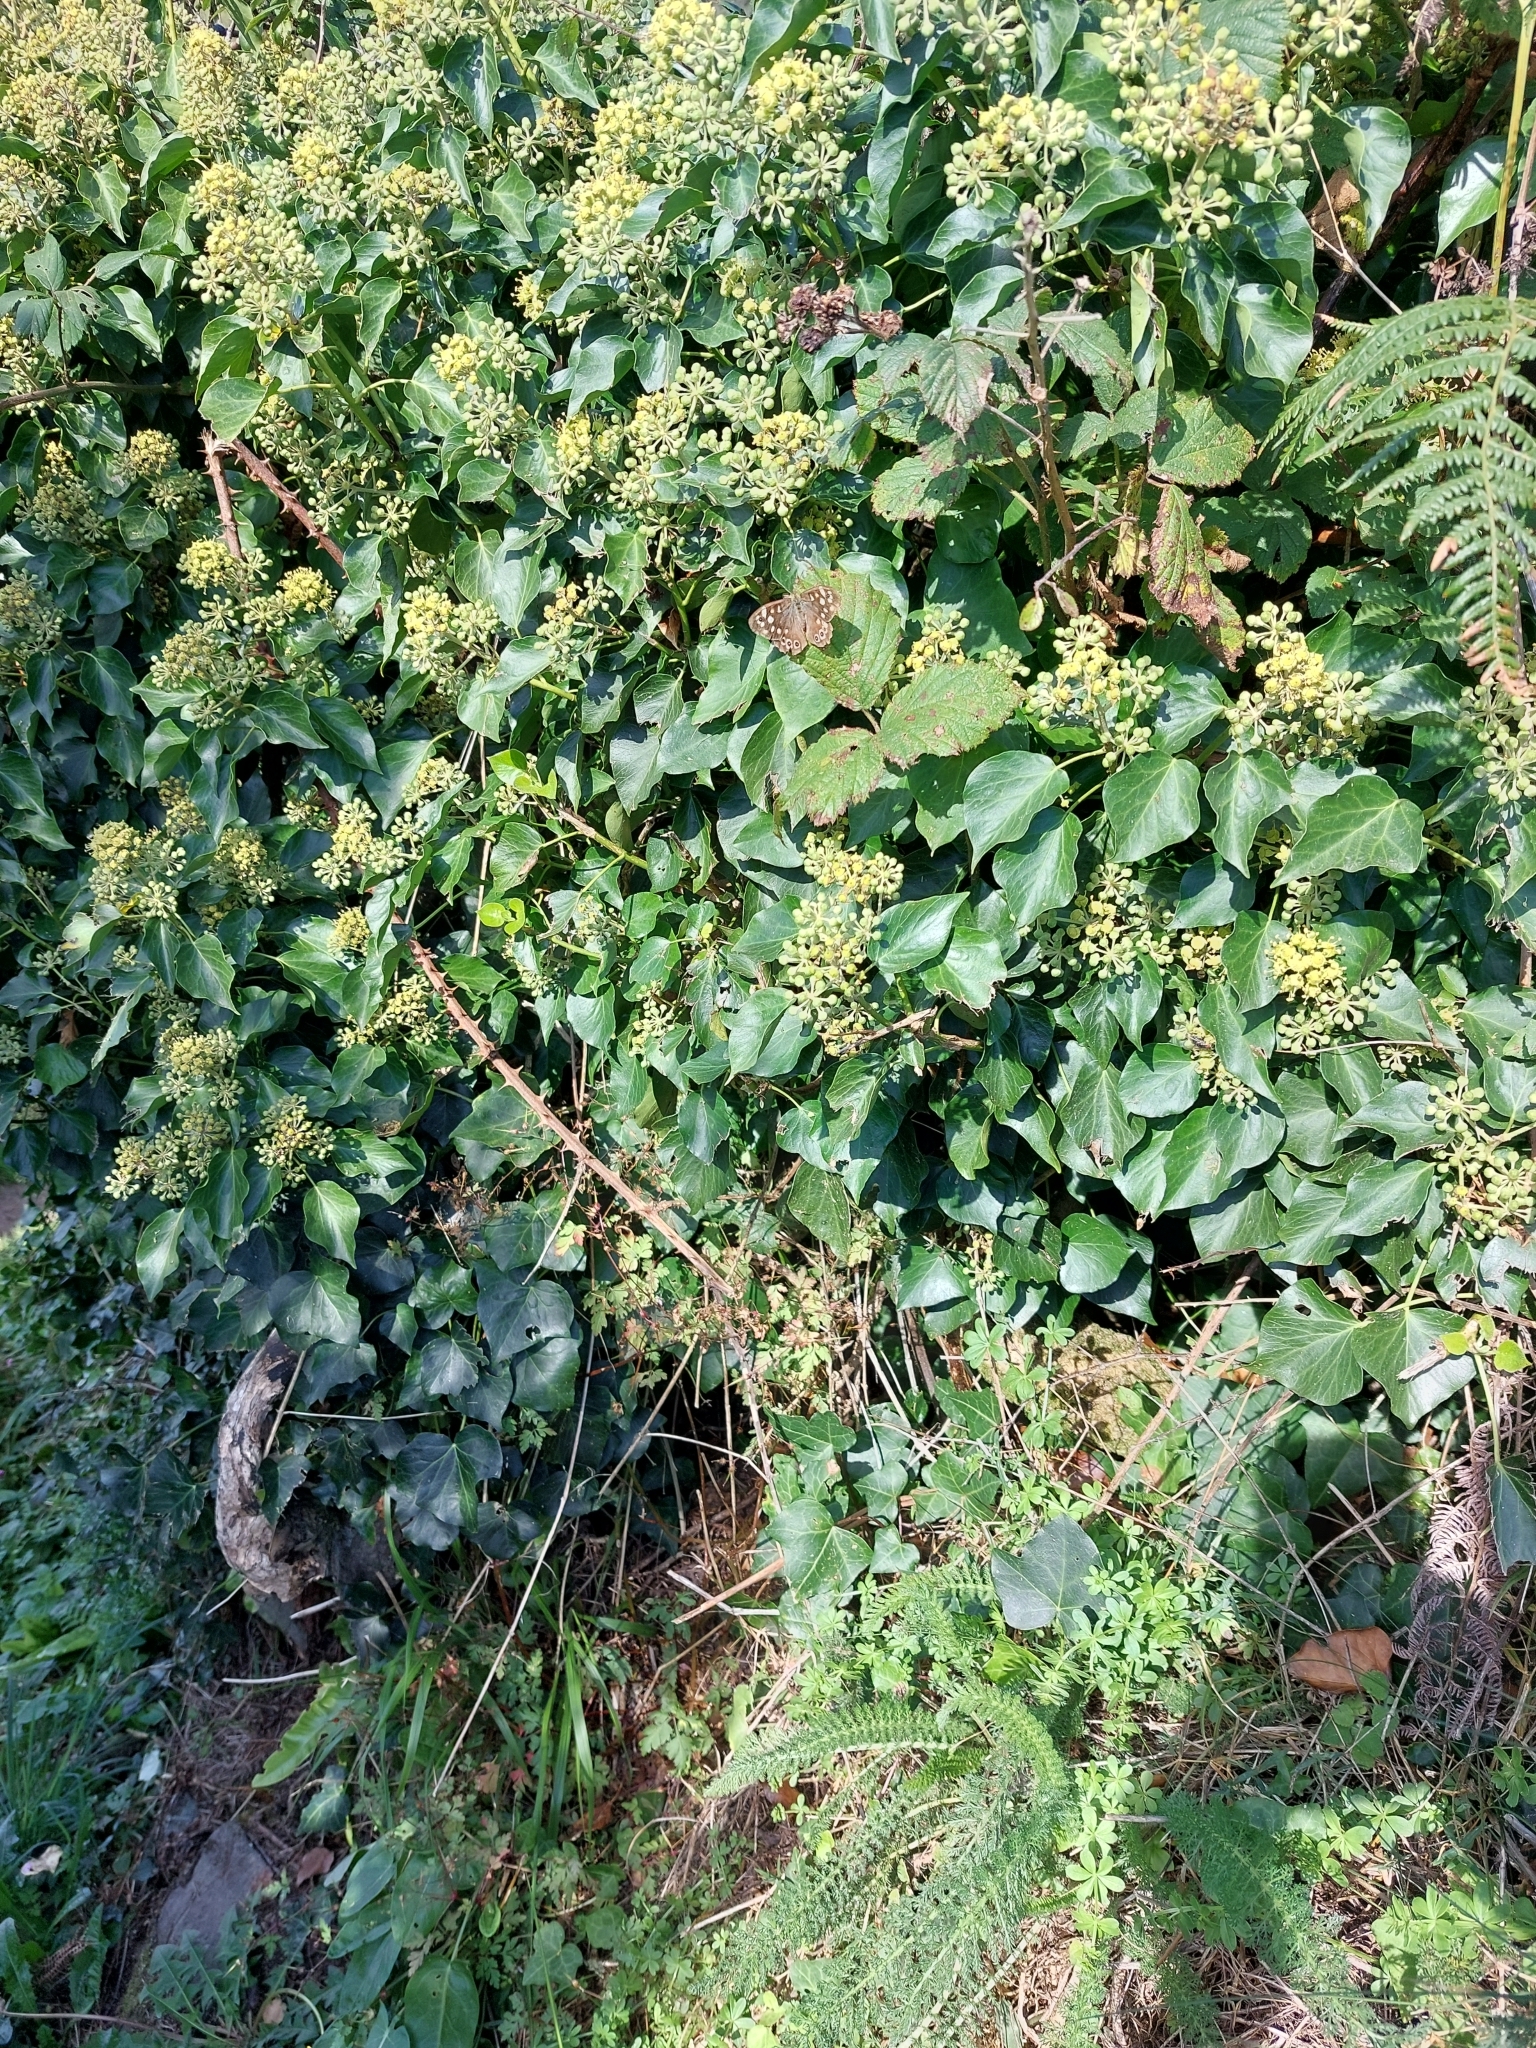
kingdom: Animalia
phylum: Arthropoda
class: Insecta
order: Lepidoptera
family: Nymphalidae
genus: Pararge
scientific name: Pararge aegeria
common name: Speckled wood
